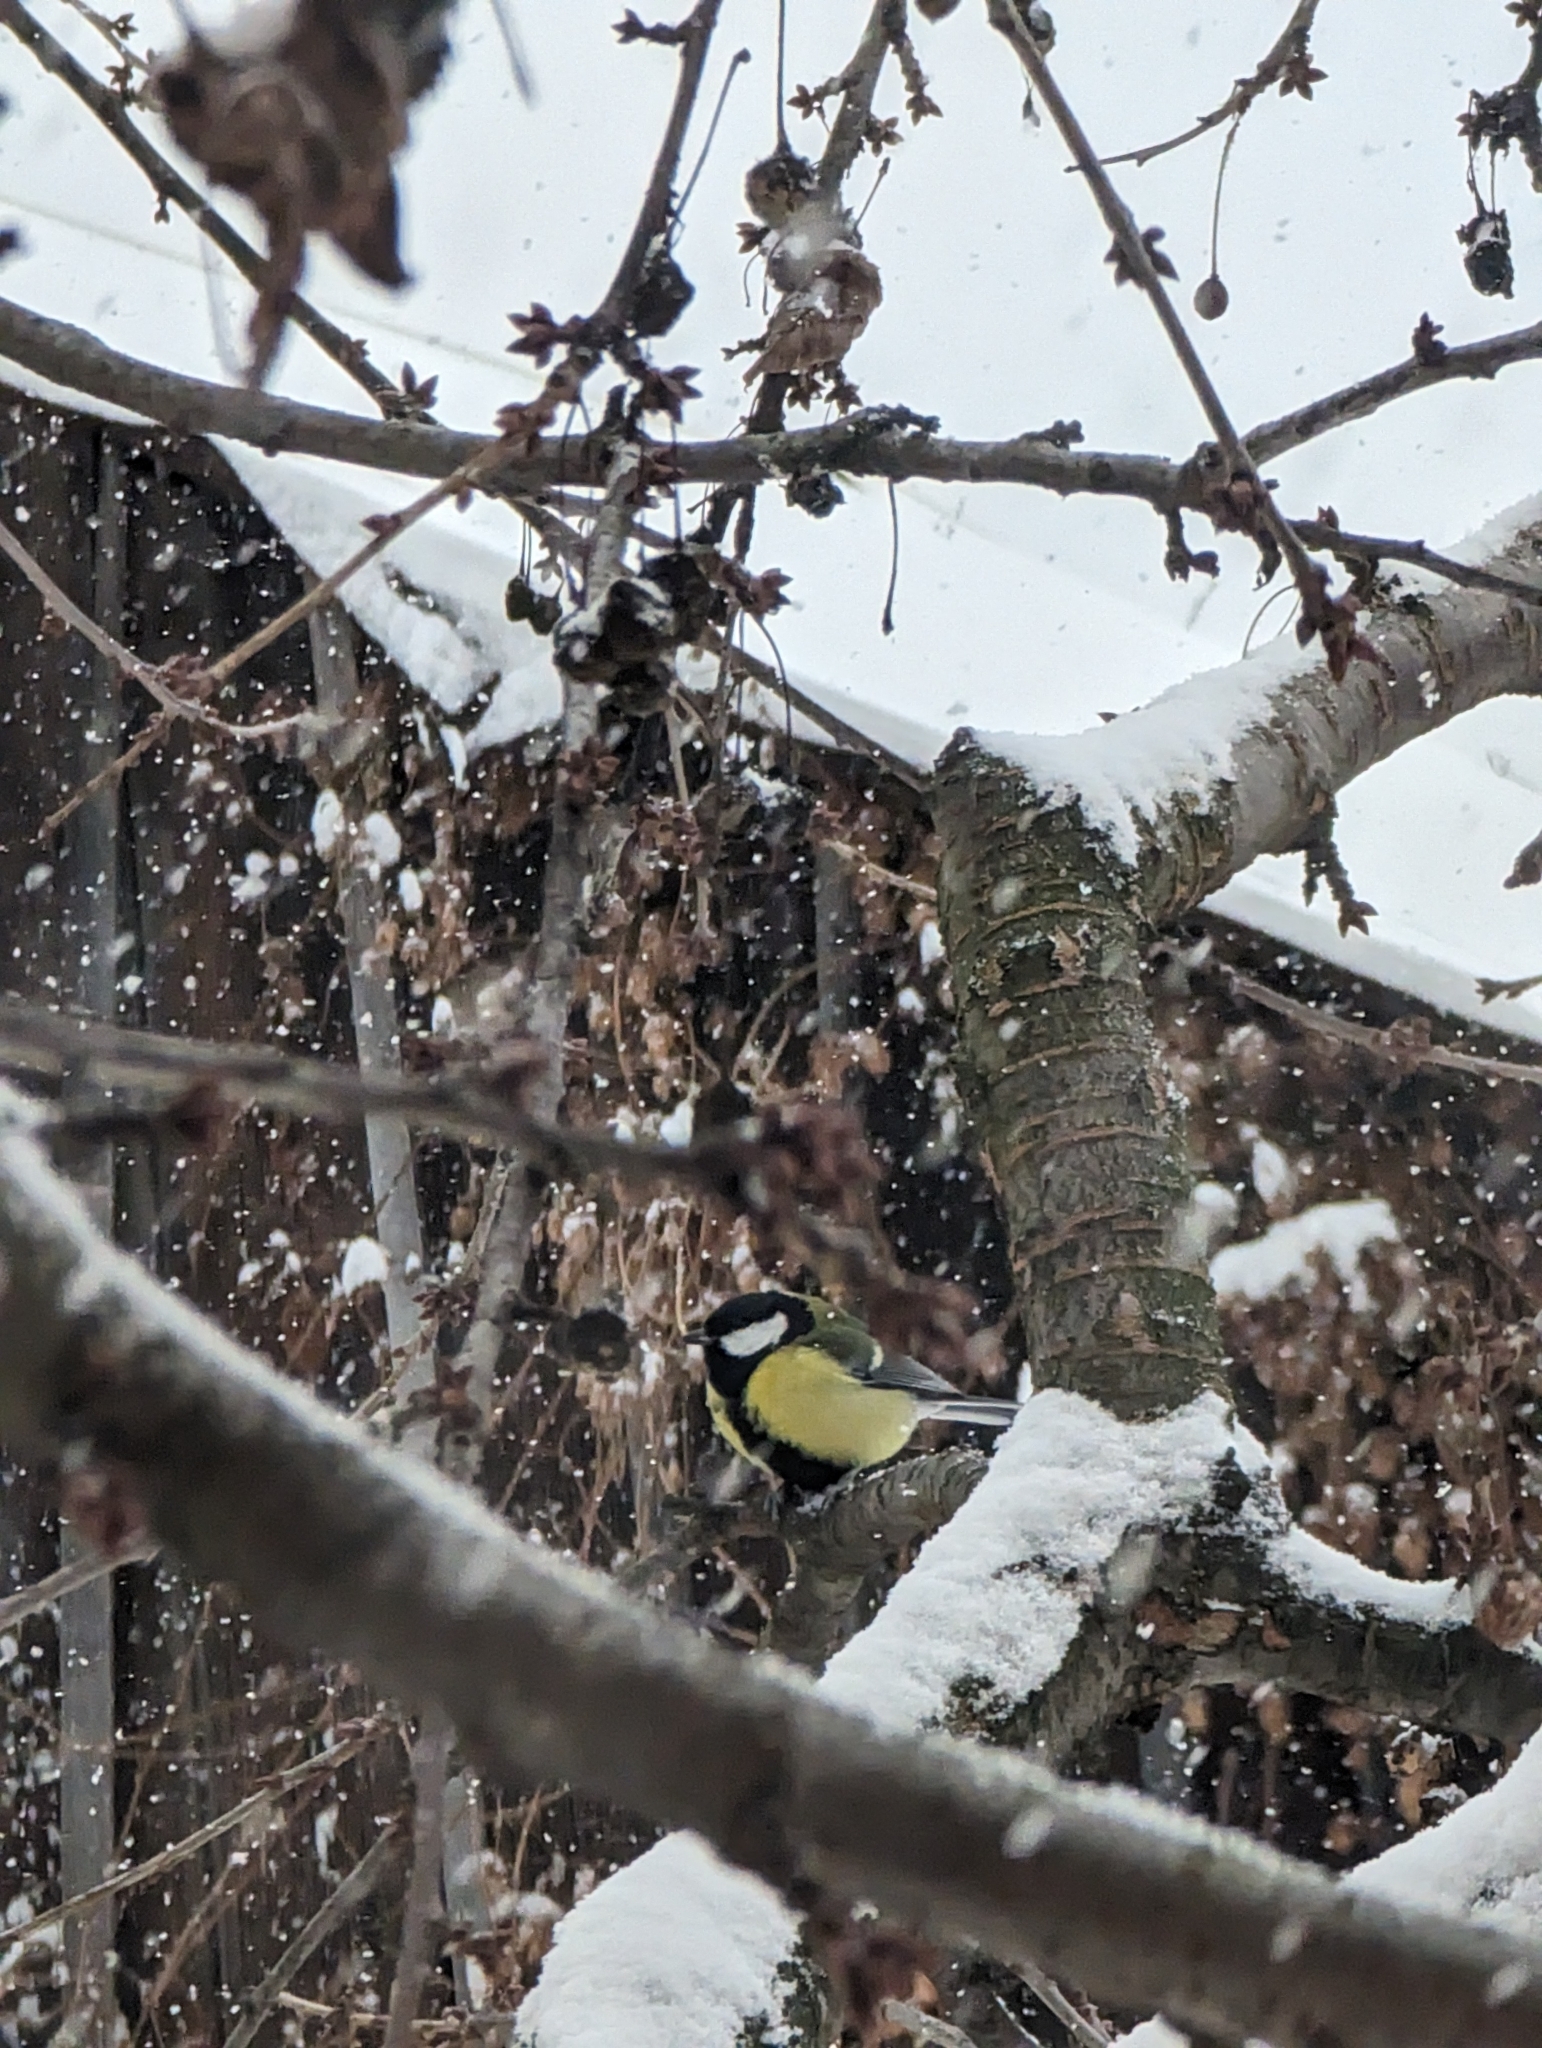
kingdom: Animalia
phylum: Chordata
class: Aves
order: Passeriformes
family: Paridae
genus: Parus
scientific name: Parus major
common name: Great tit
